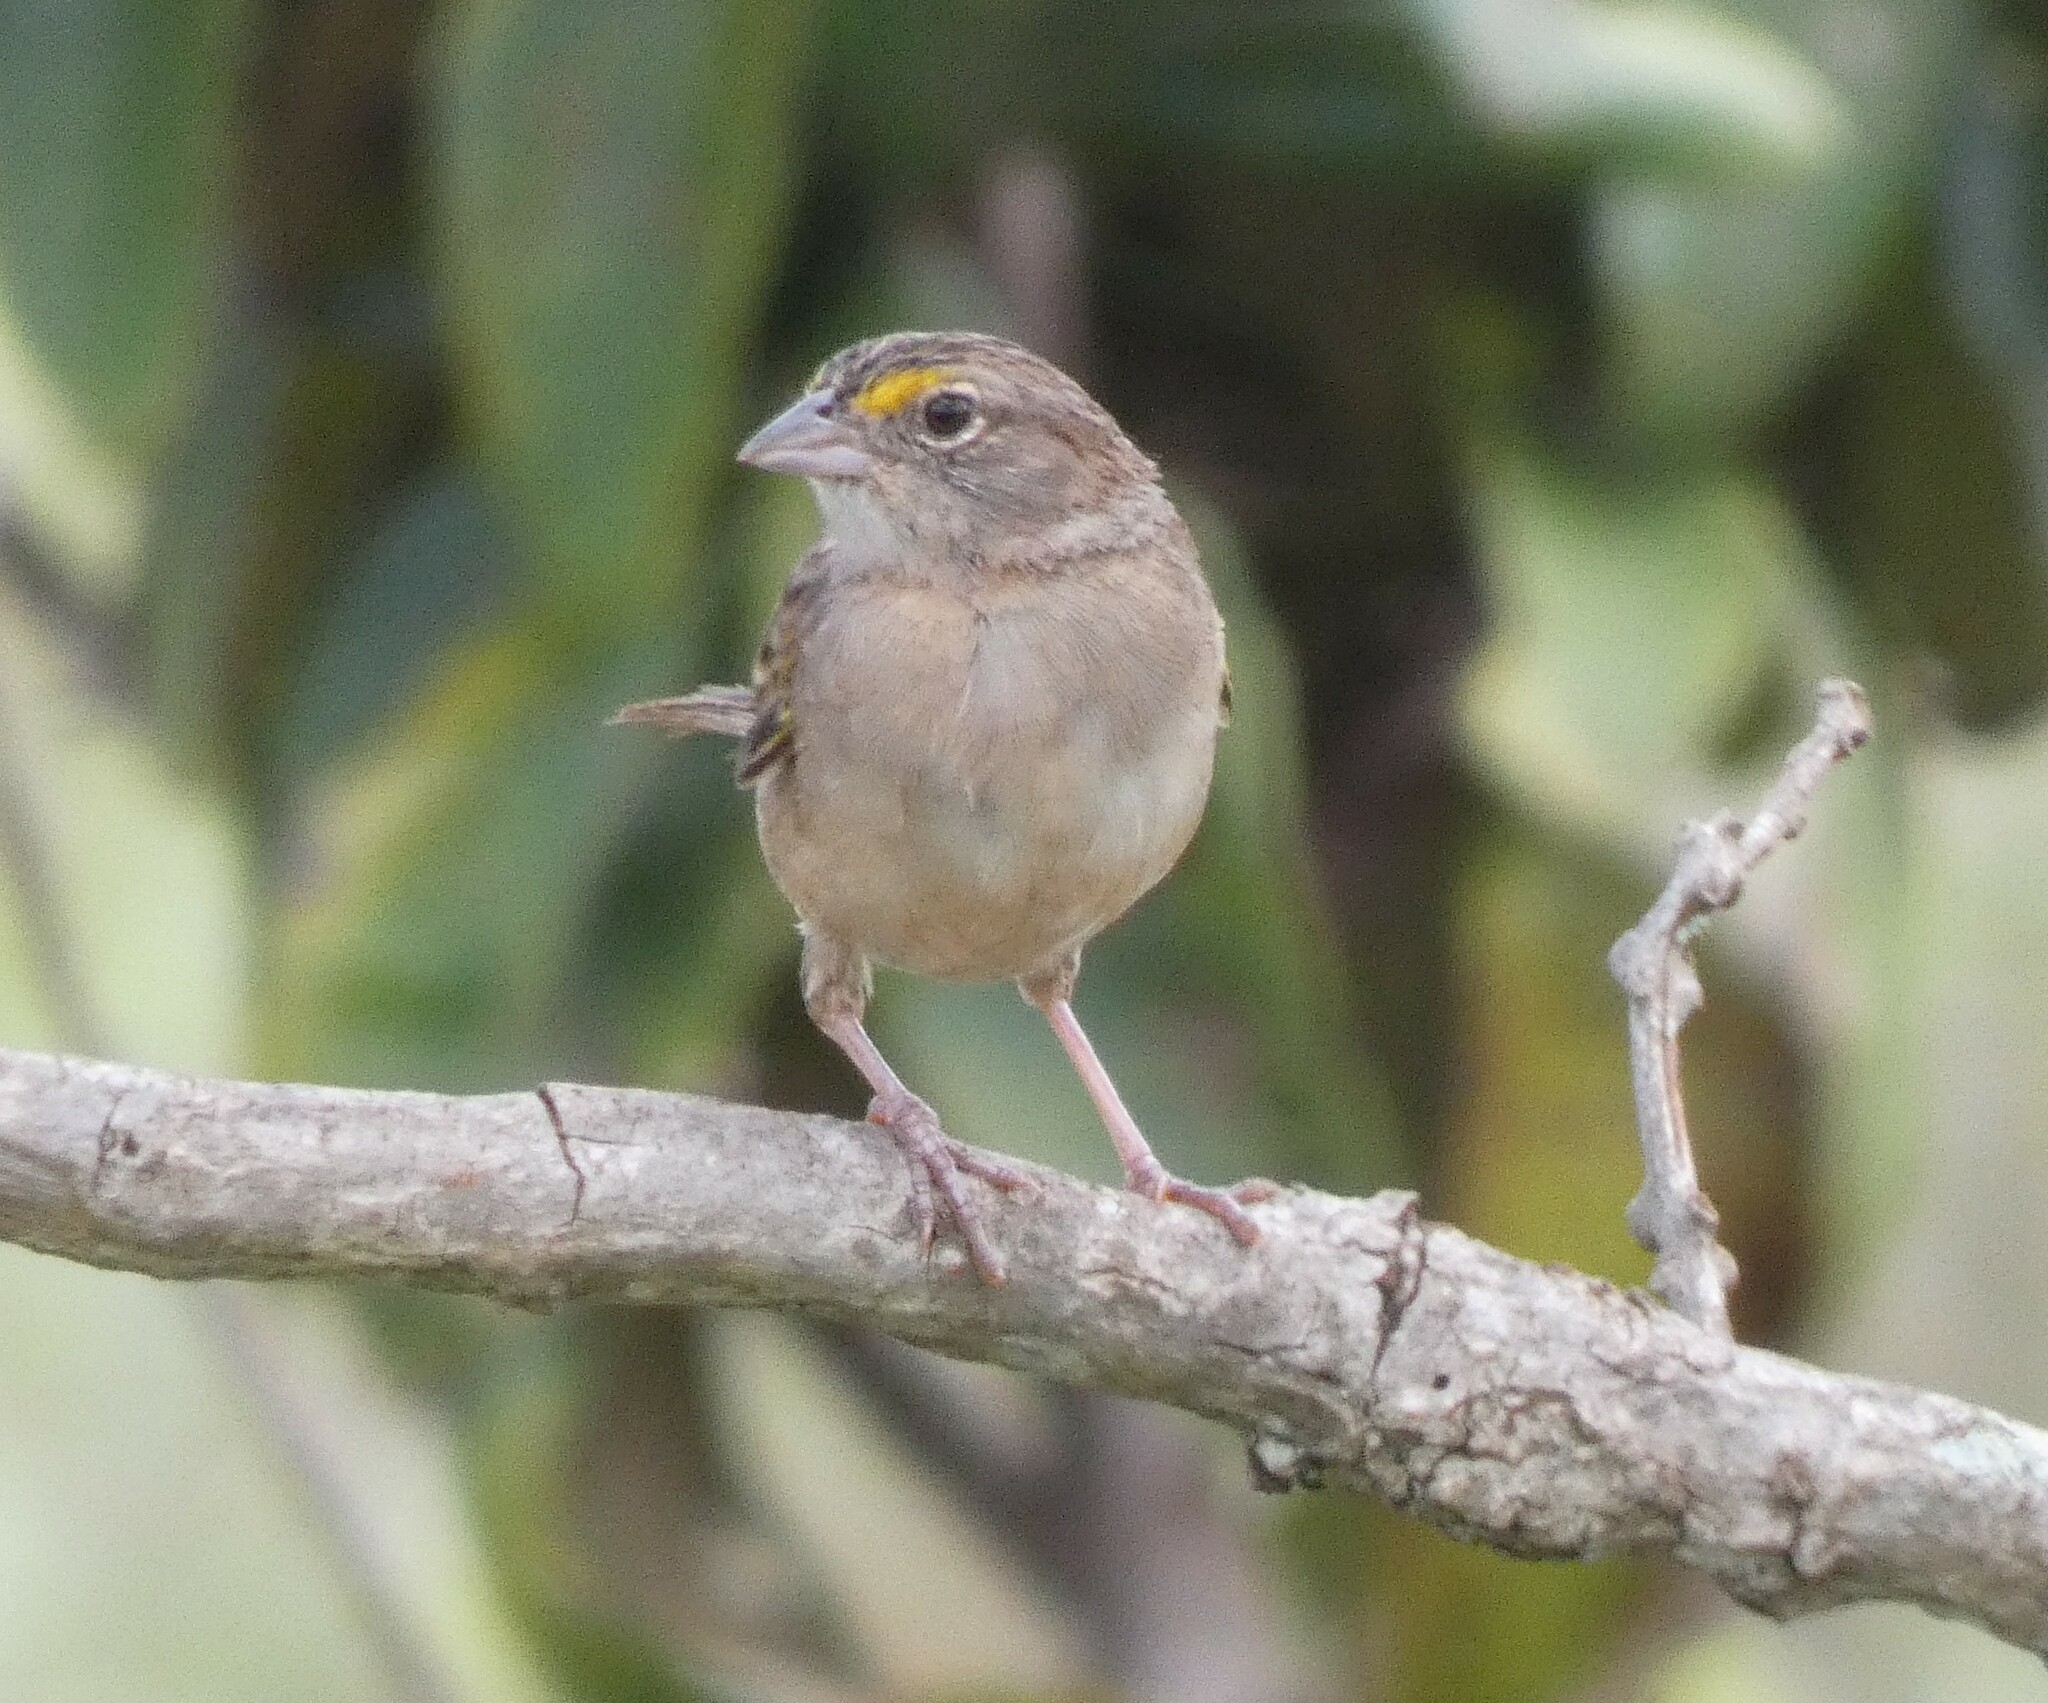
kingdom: Animalia
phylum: Chordata
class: Aves
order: Passeriformes
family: Passerellidae
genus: Ammodramus
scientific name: Ammodramus humeralis
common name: Grassland sparrow
